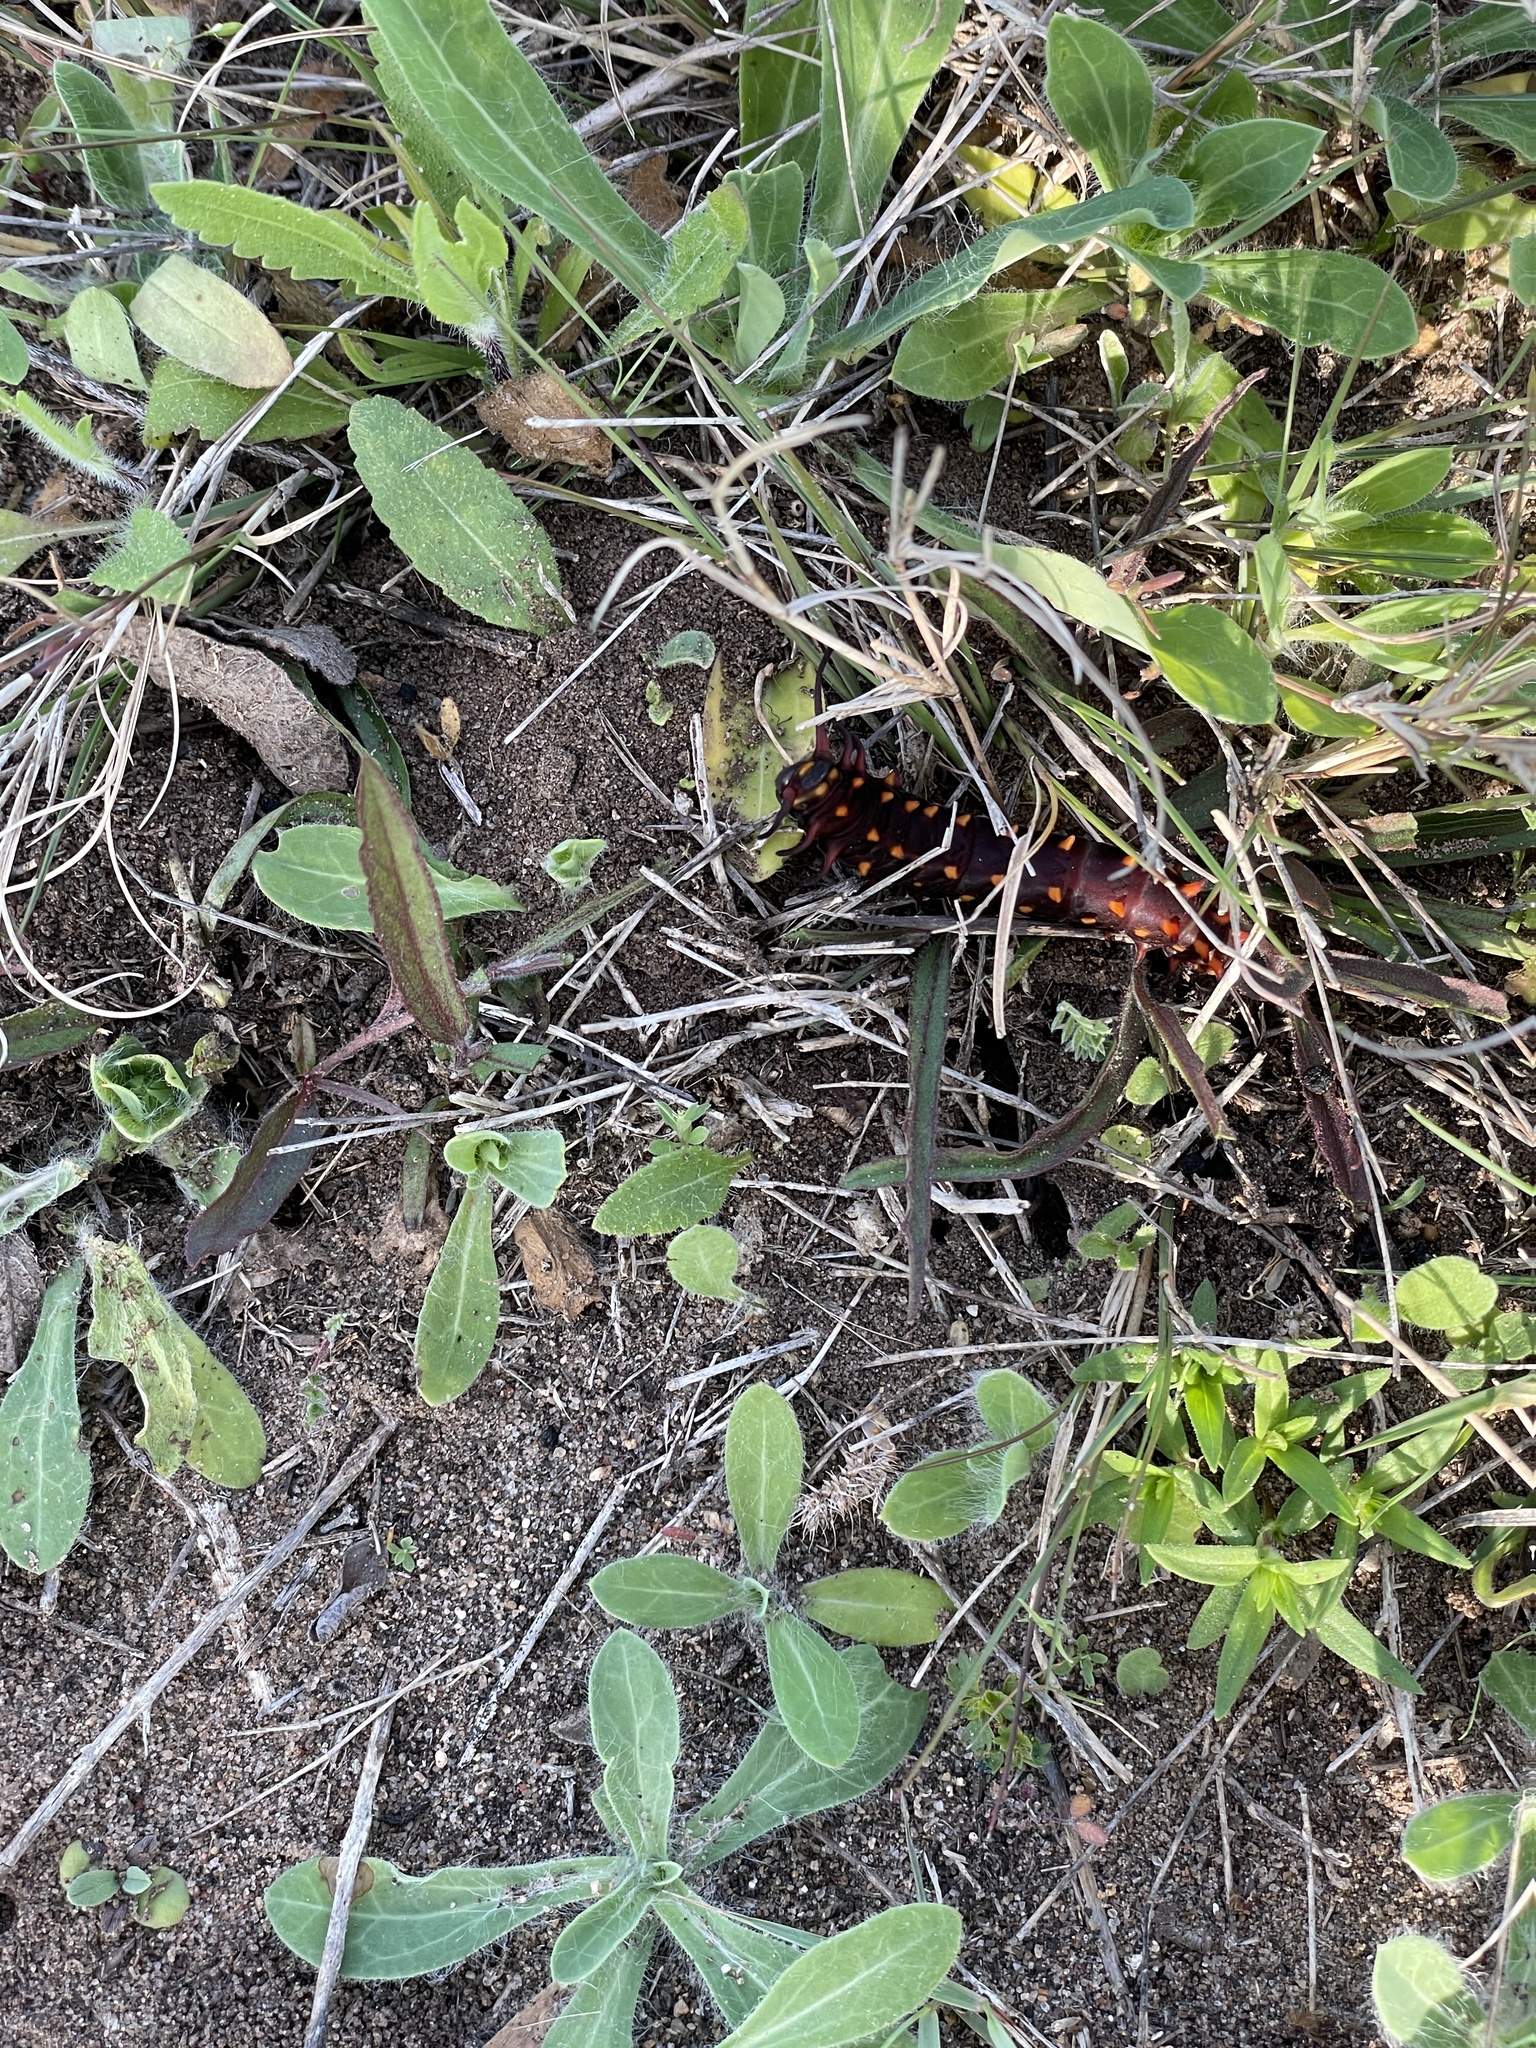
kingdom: Plantae
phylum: Tracheophyta
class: Magnoliopsida
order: Piperales
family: Aristolochiaceae
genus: Aristolochia
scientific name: Aristolochia erecta
